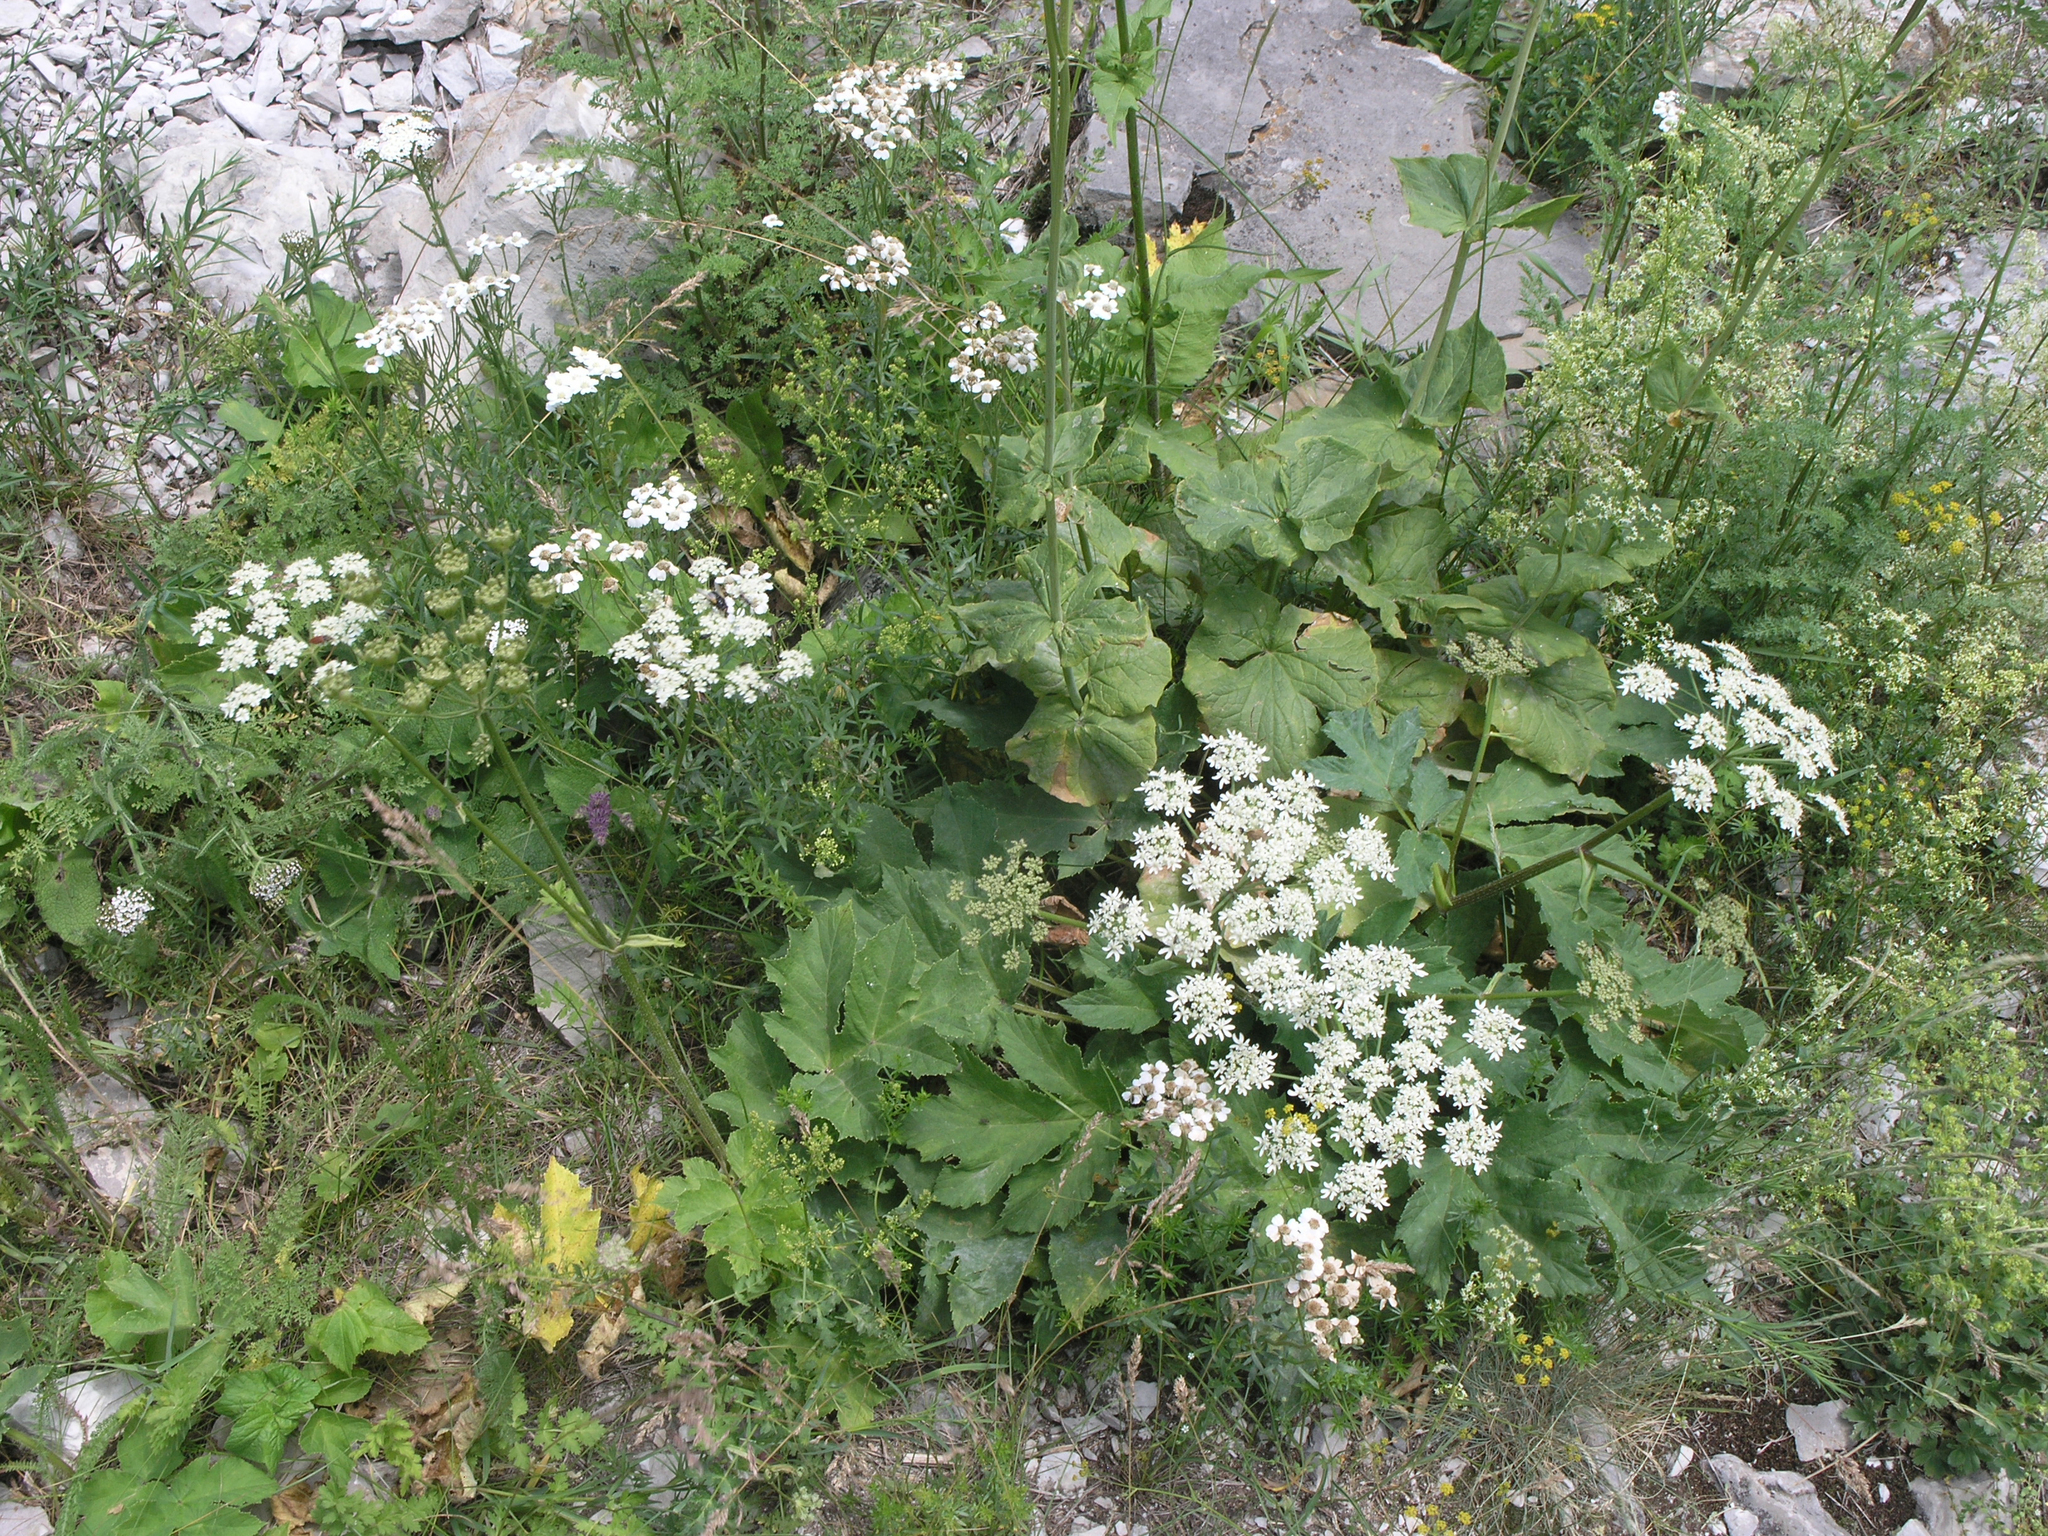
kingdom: Plantae
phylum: Tracheophyta
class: Magnoliopsida
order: Apiales
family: Apiaceae
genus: Heracleum
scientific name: Heracleum grandiflorum
